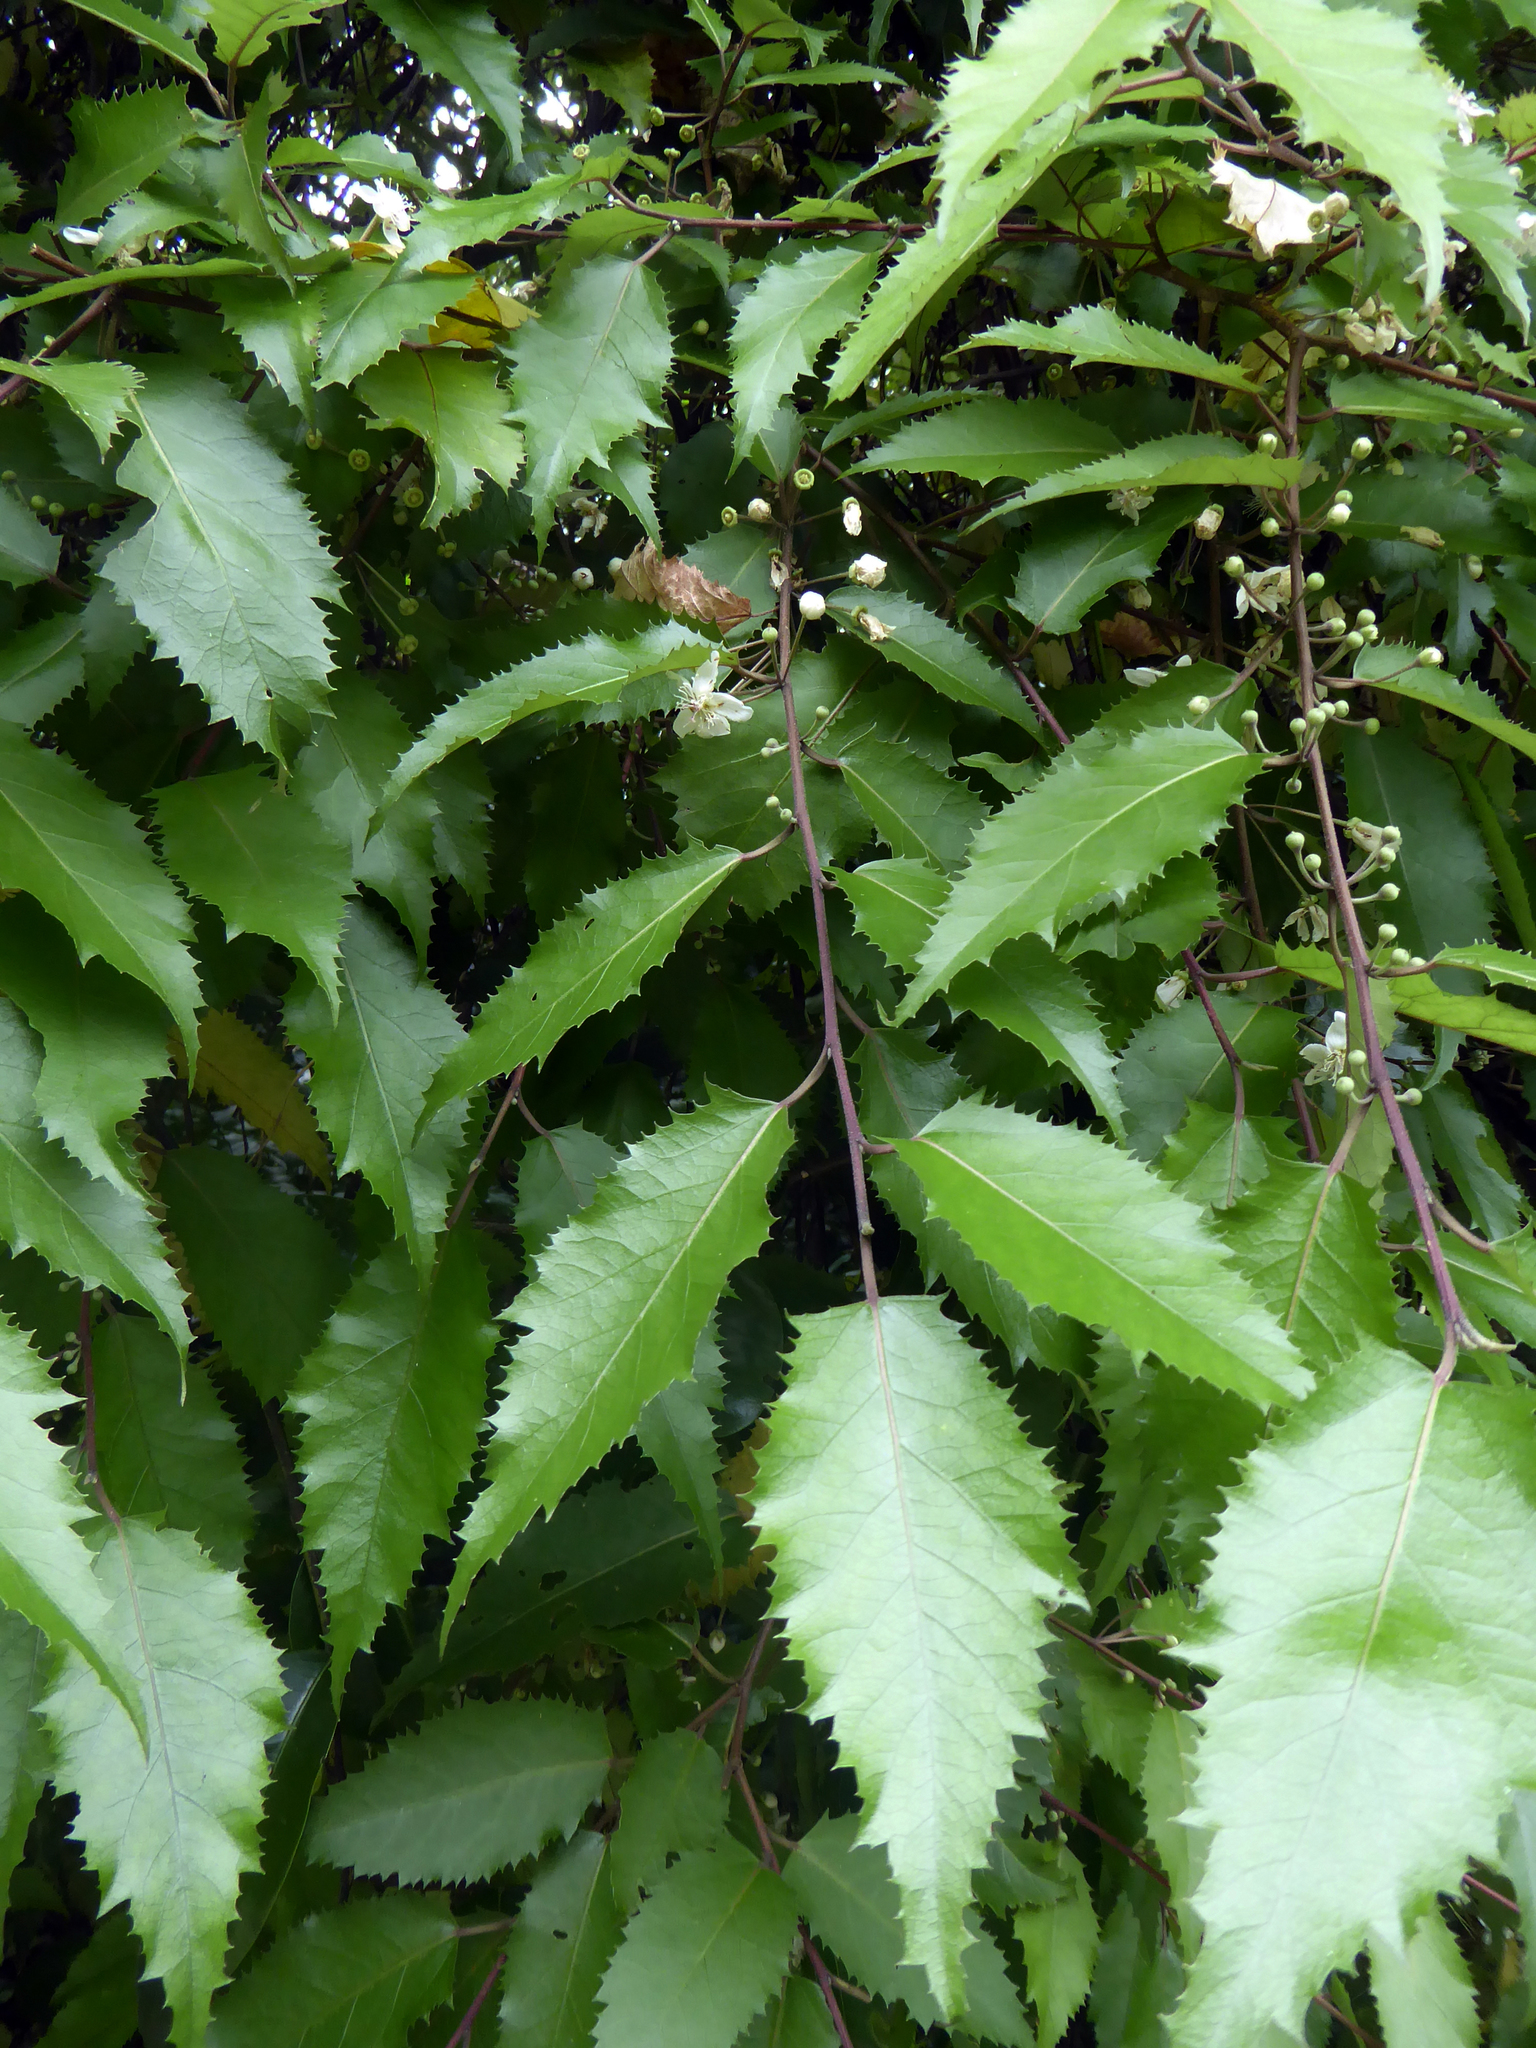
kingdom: Plantae
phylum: Tracheophyta
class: Magnoliopsida
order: Malvales
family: Malvaceae
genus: Hoheria
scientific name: Hoheria sexstylosa
